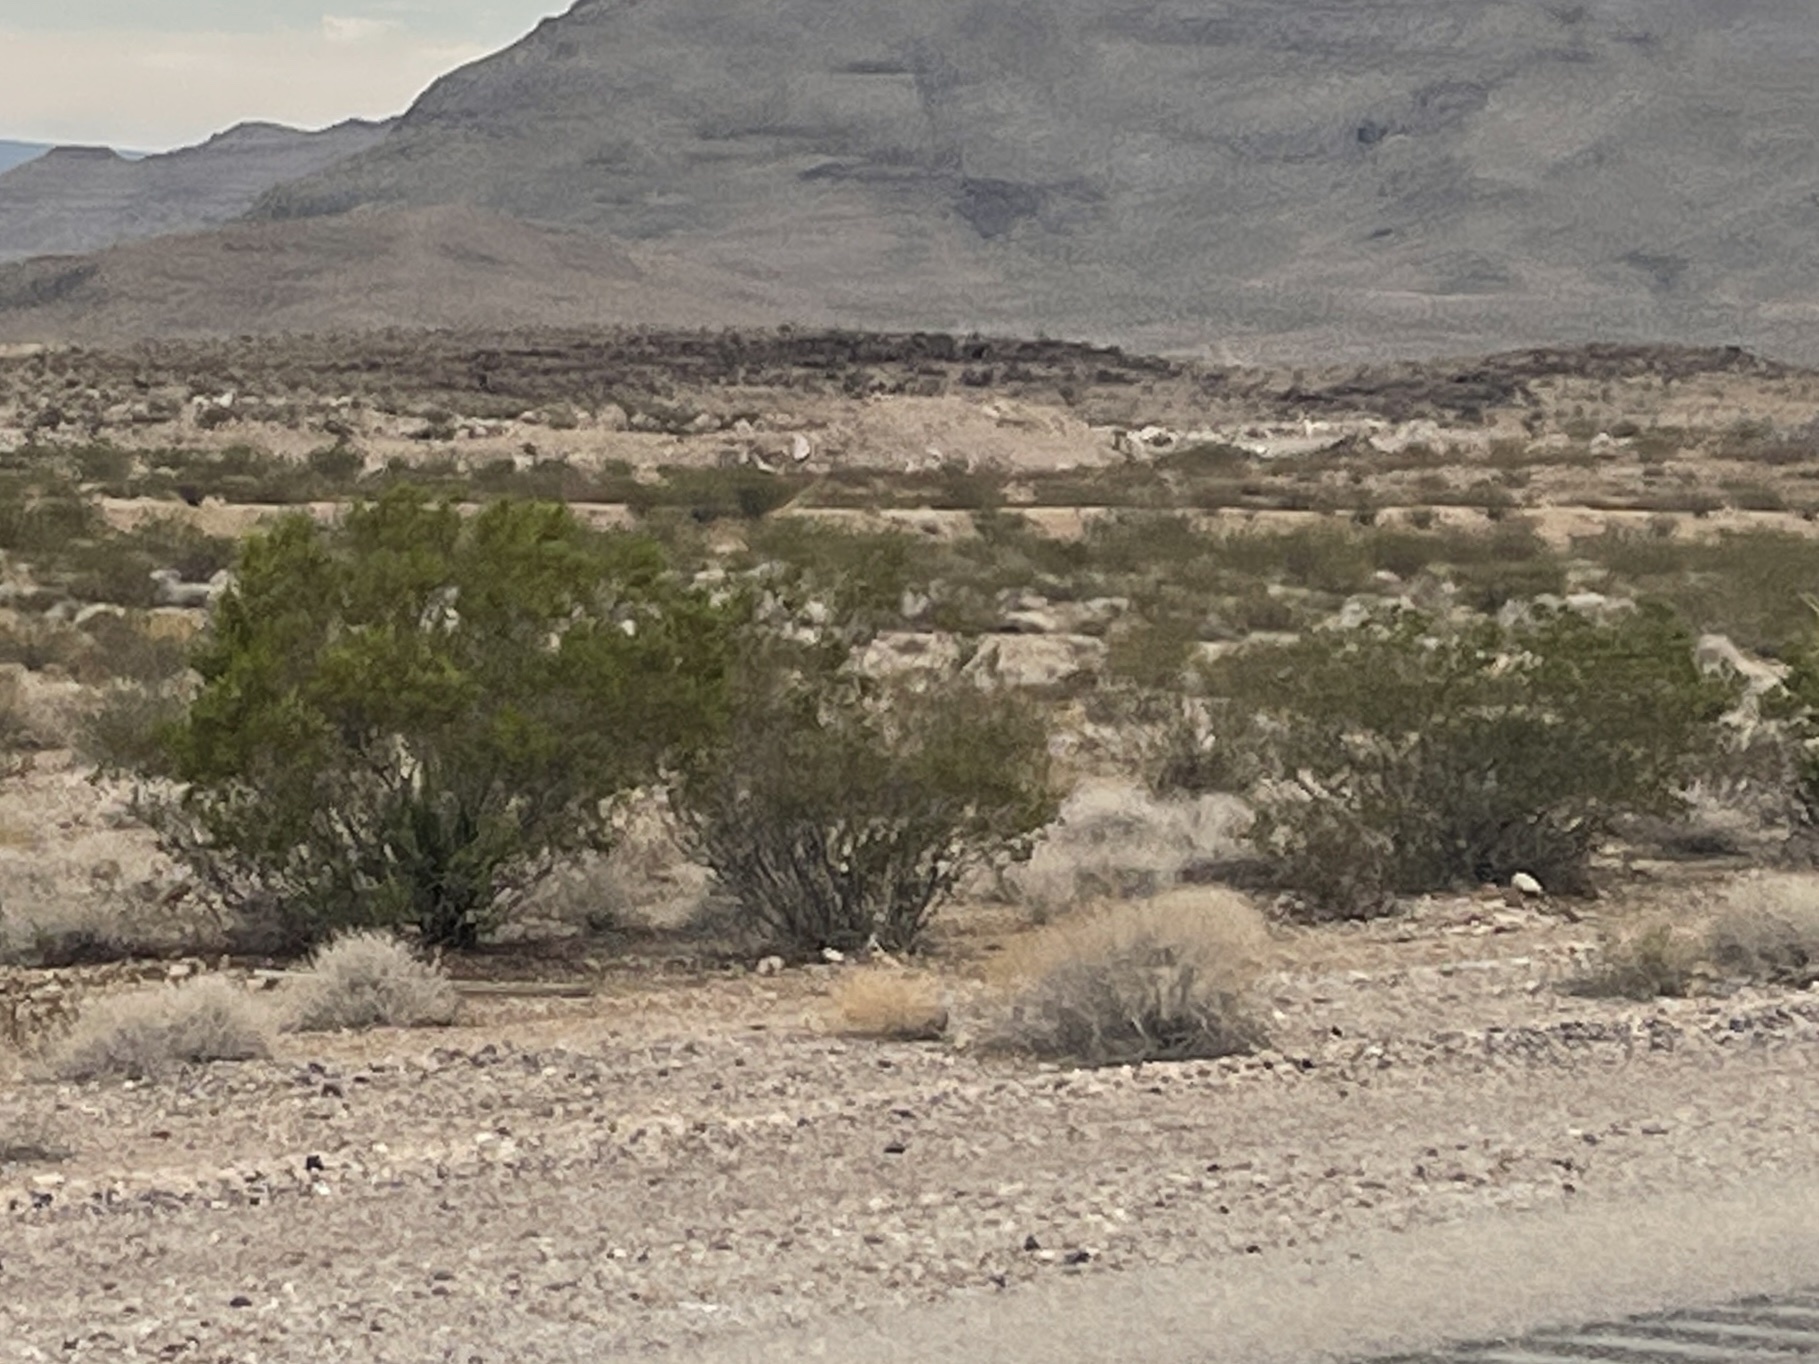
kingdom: Plantae
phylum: Tracheophyta
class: Magnoliopsida
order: Zygophyllales
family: Zygophyllaceae
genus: Larrea
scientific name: Larrea tridentata
